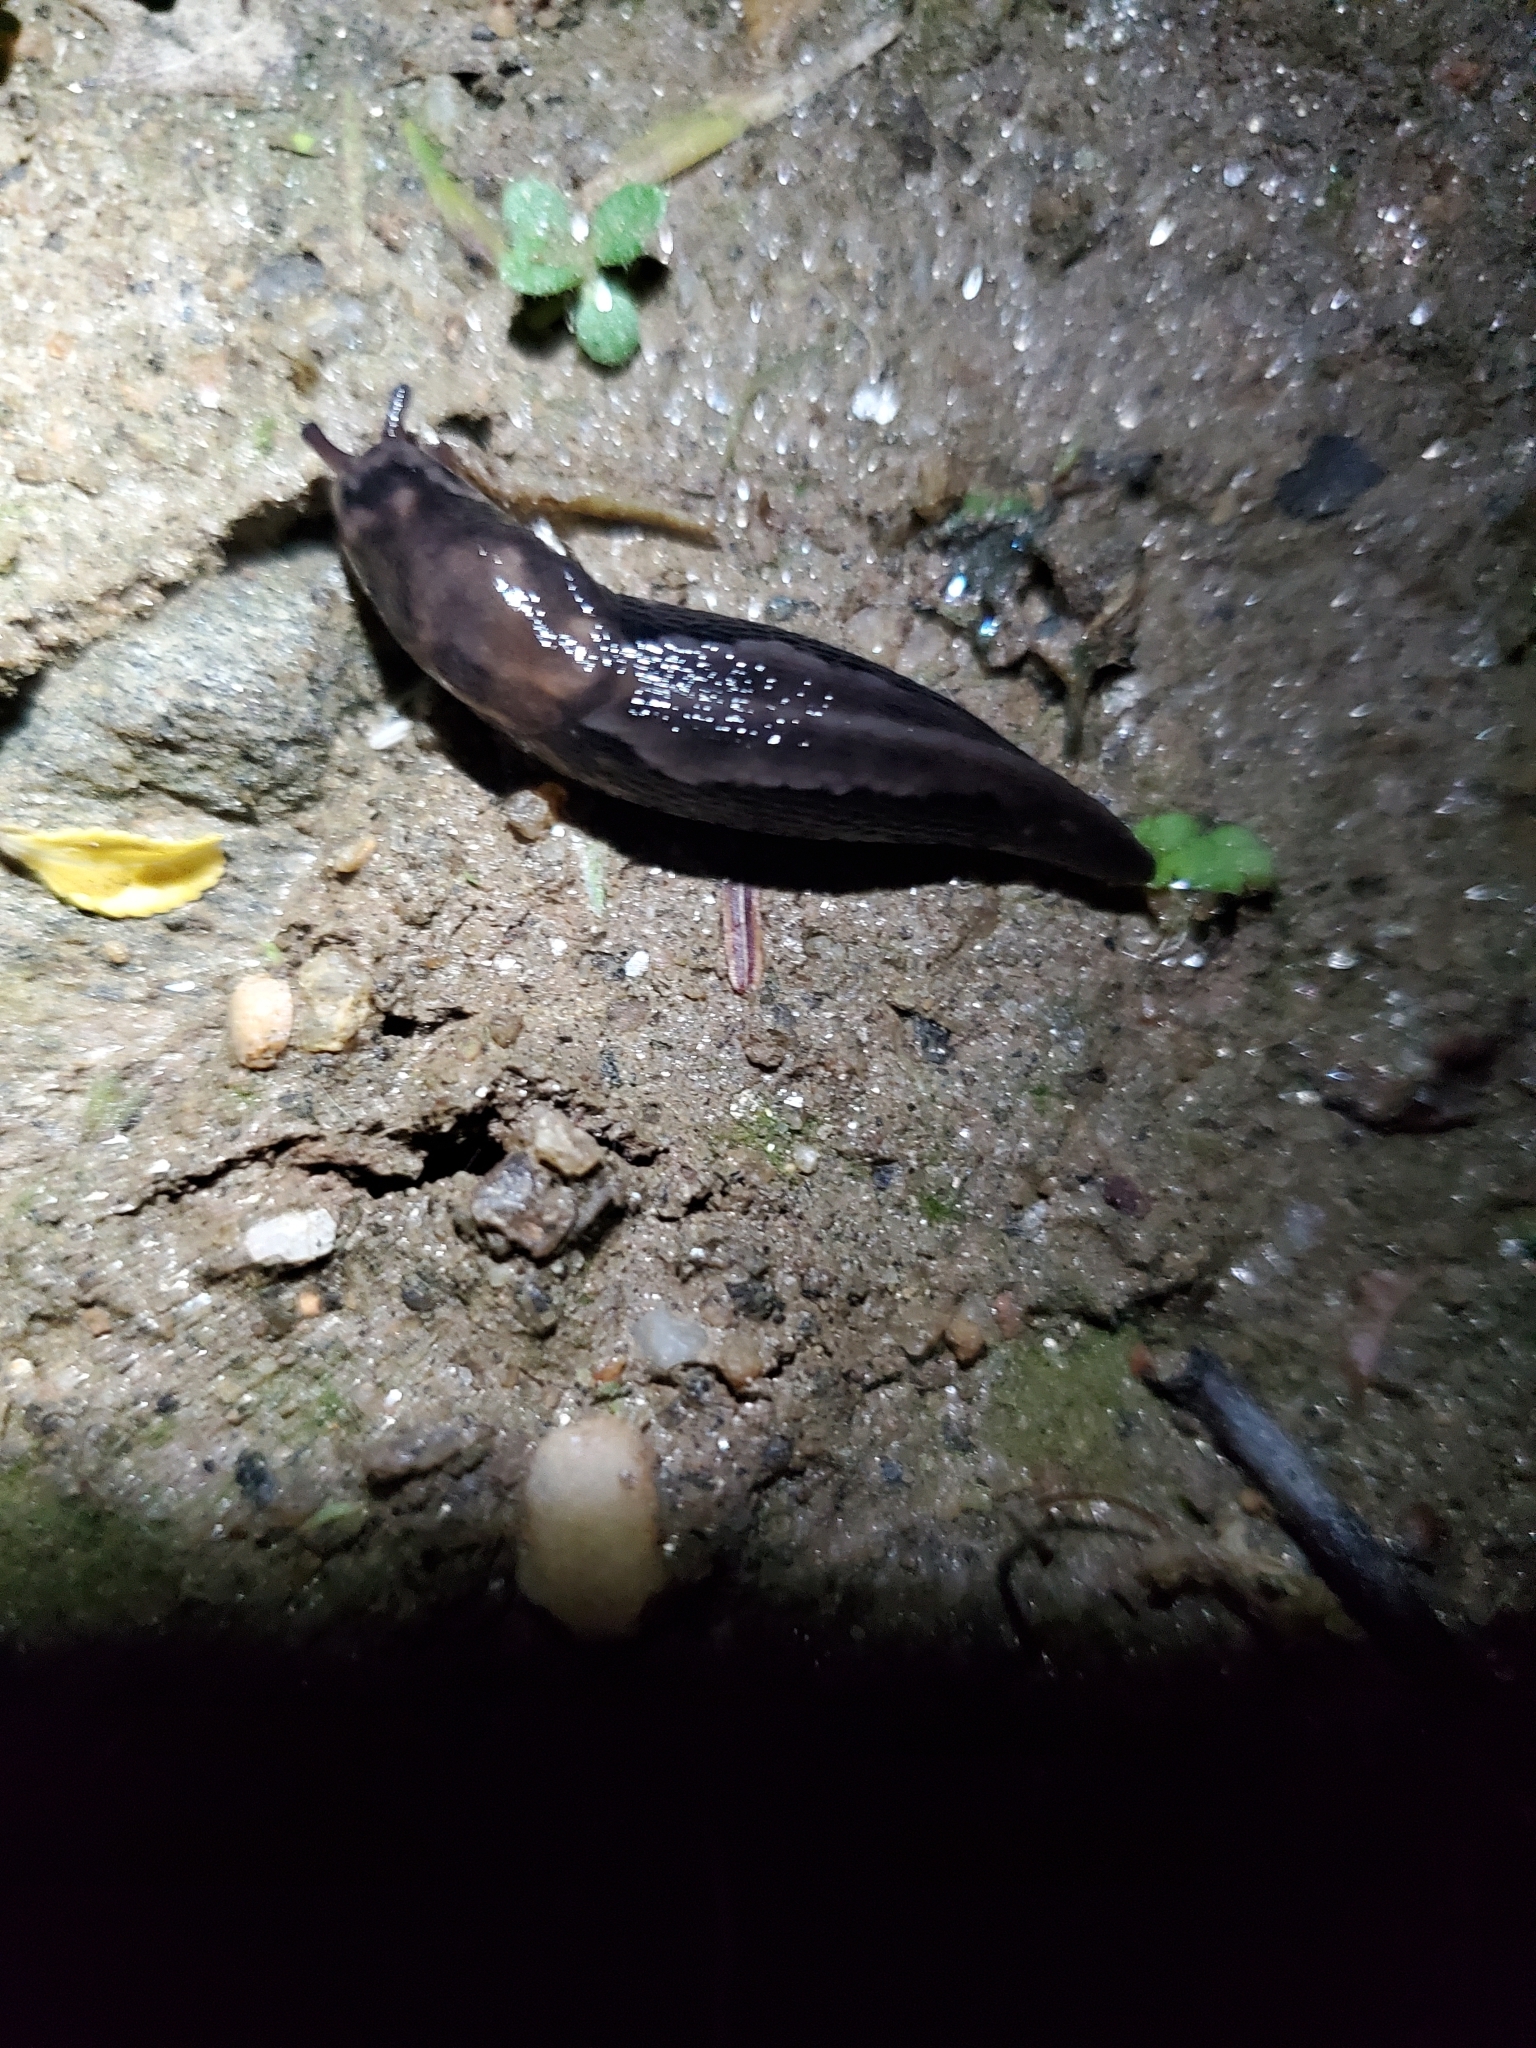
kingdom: Animalia
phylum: Mollusca
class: Gastropoda
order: Stylommatophora
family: Limacidae
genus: Limax
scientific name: Limax maximus
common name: Great grey slug
